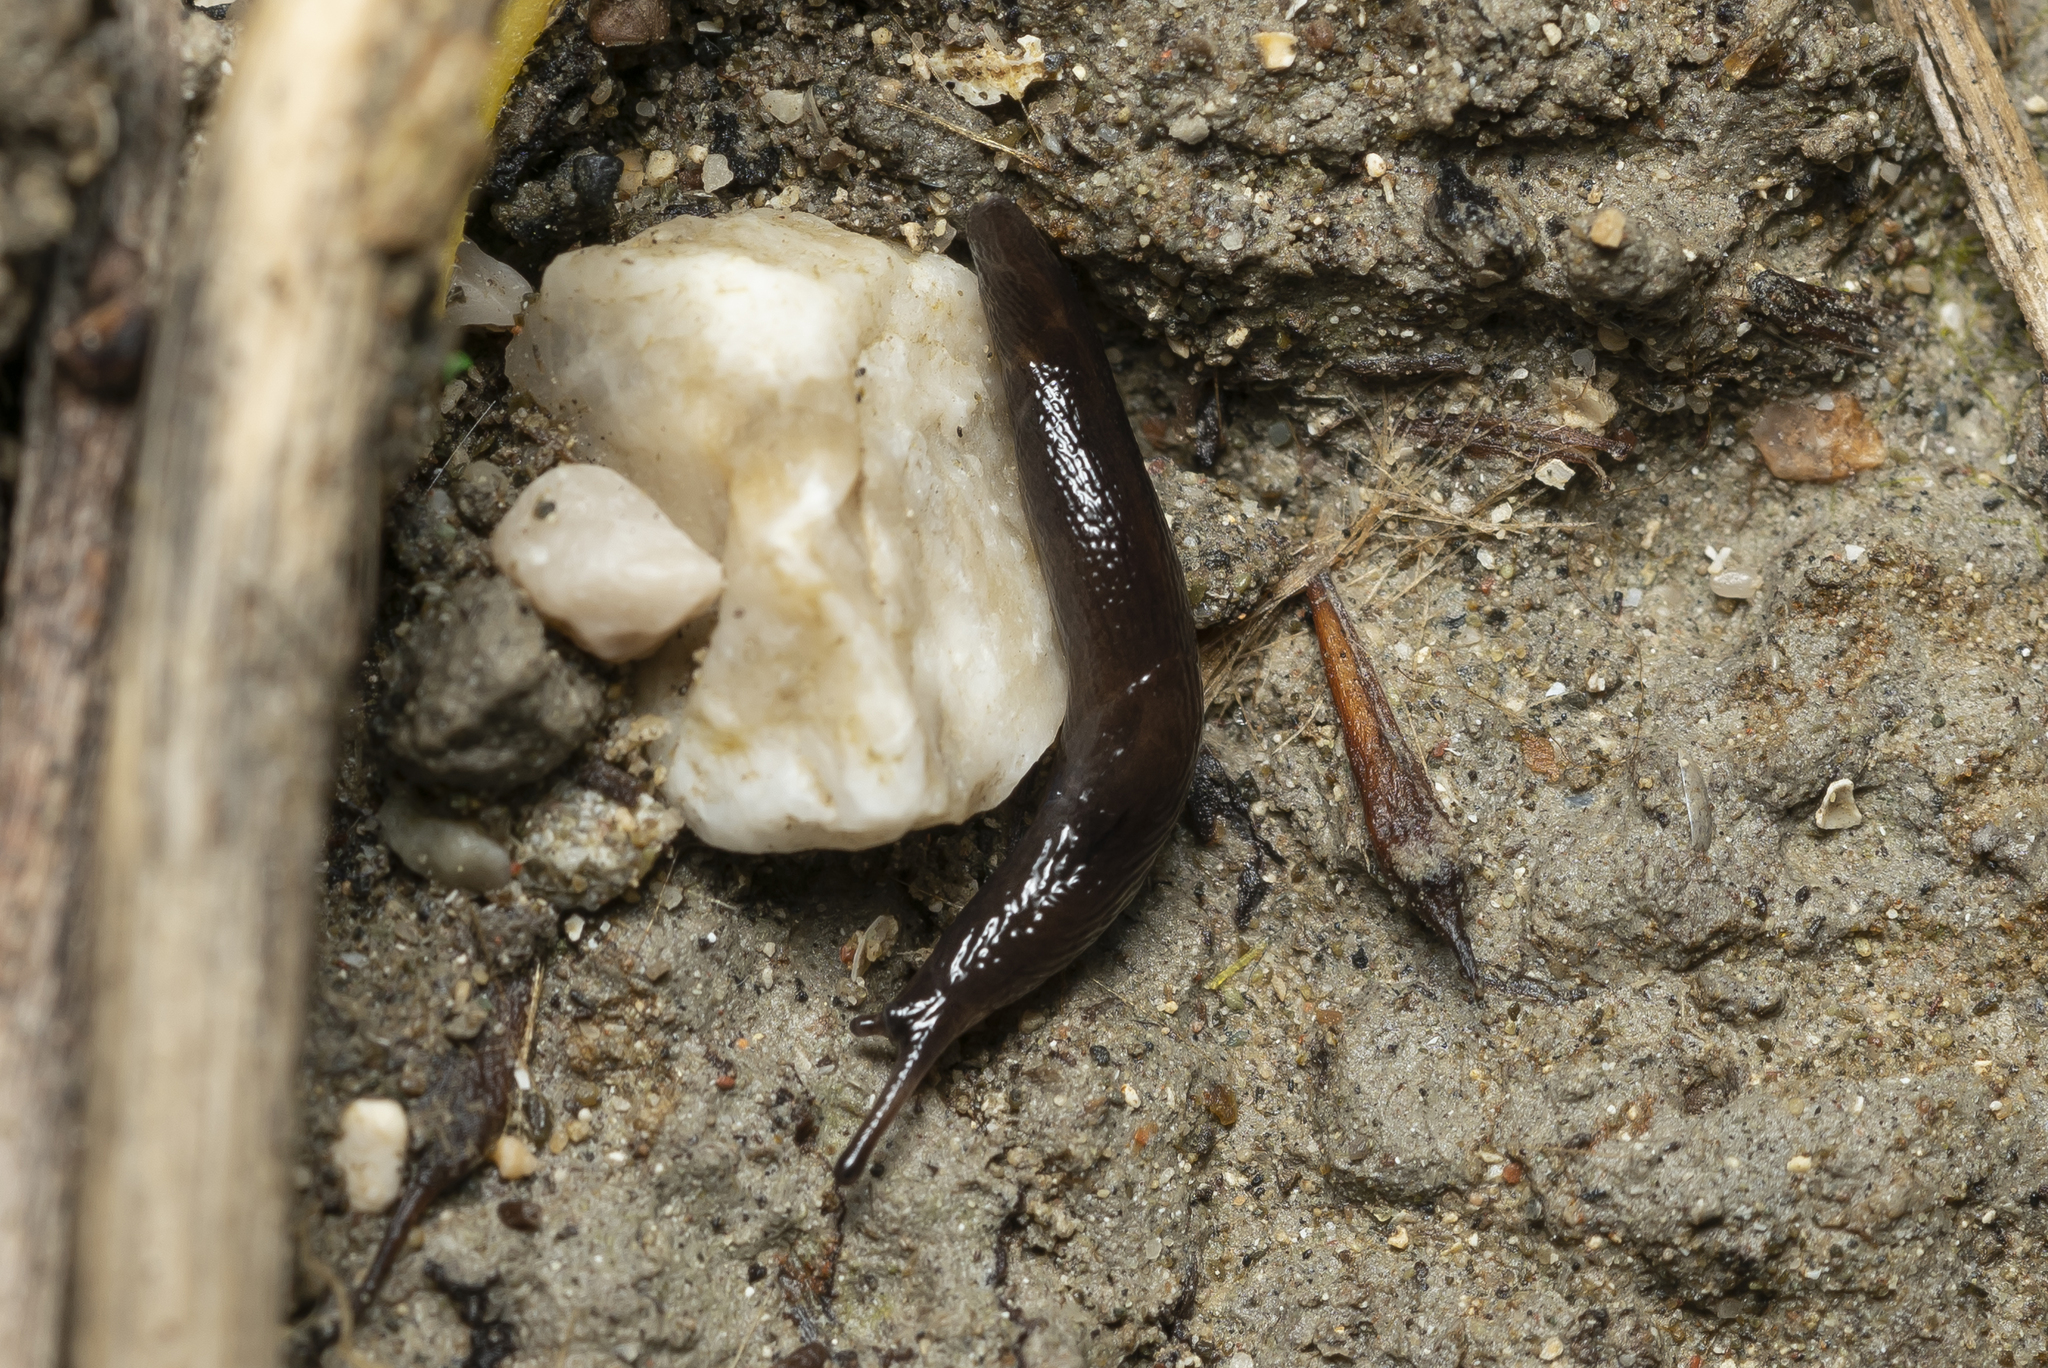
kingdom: Animalia
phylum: Mollusca
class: Gastropoda
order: Stylommatophora
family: Agriolimacidae
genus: Mesolimax
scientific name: Mesolimax brauni
